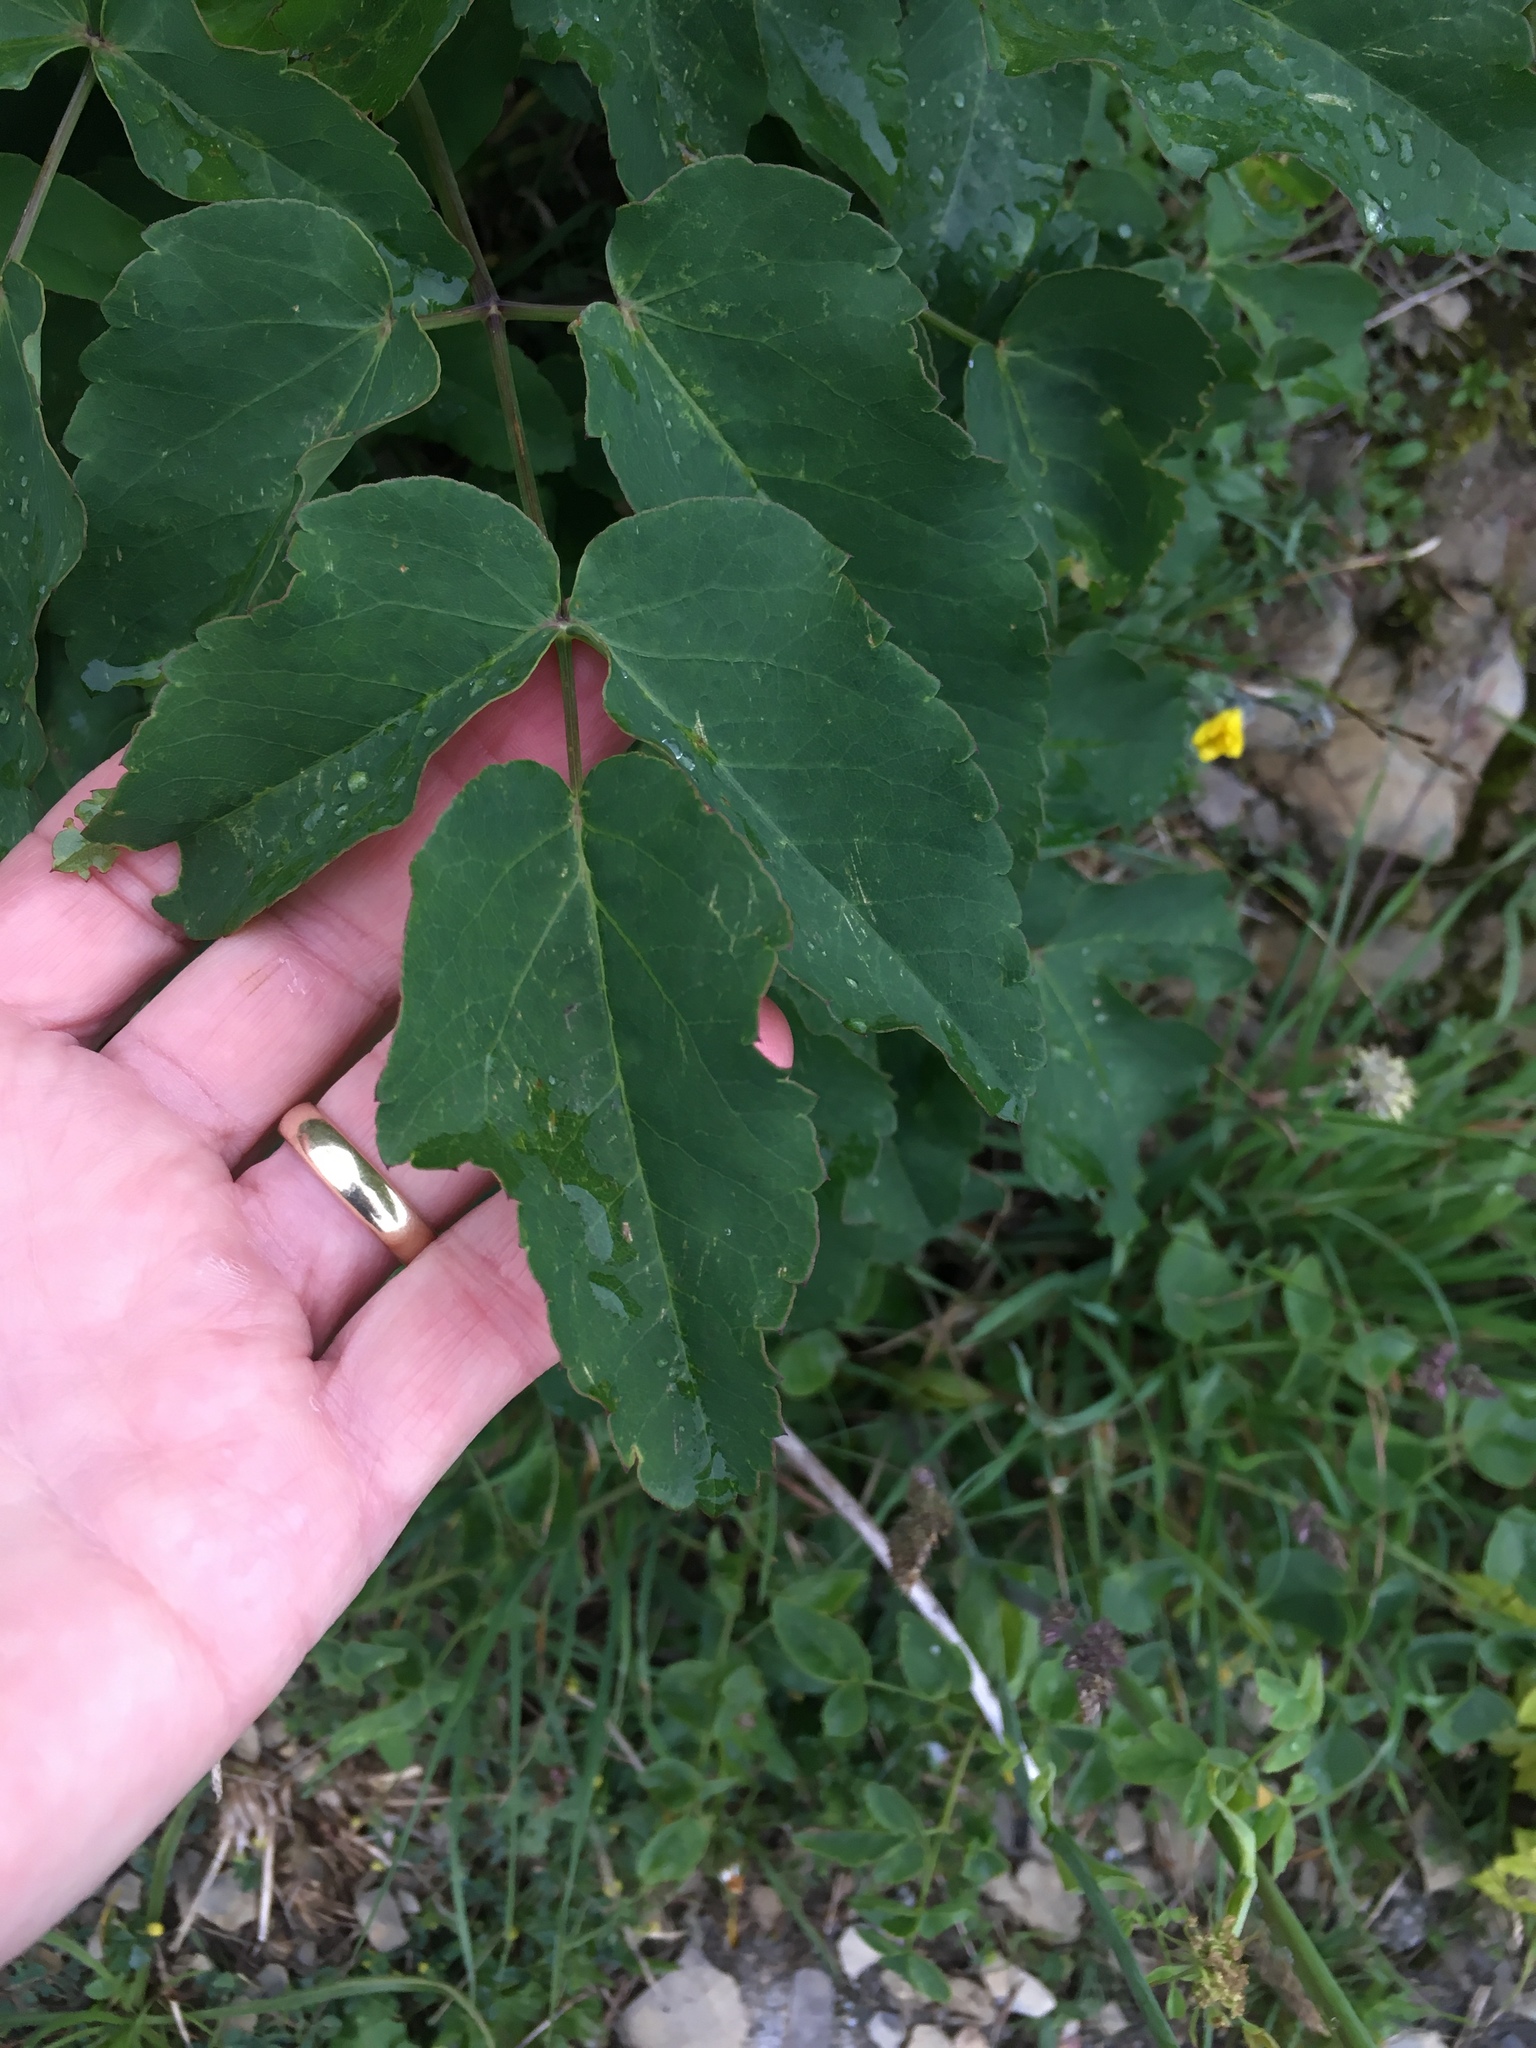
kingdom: Plantae
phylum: Tracheophyta
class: Magnoliopsida
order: Apiales
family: Apiaceae
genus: Laserpitium
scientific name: Laserpitium latifolium
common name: Broadleaf sermountain
